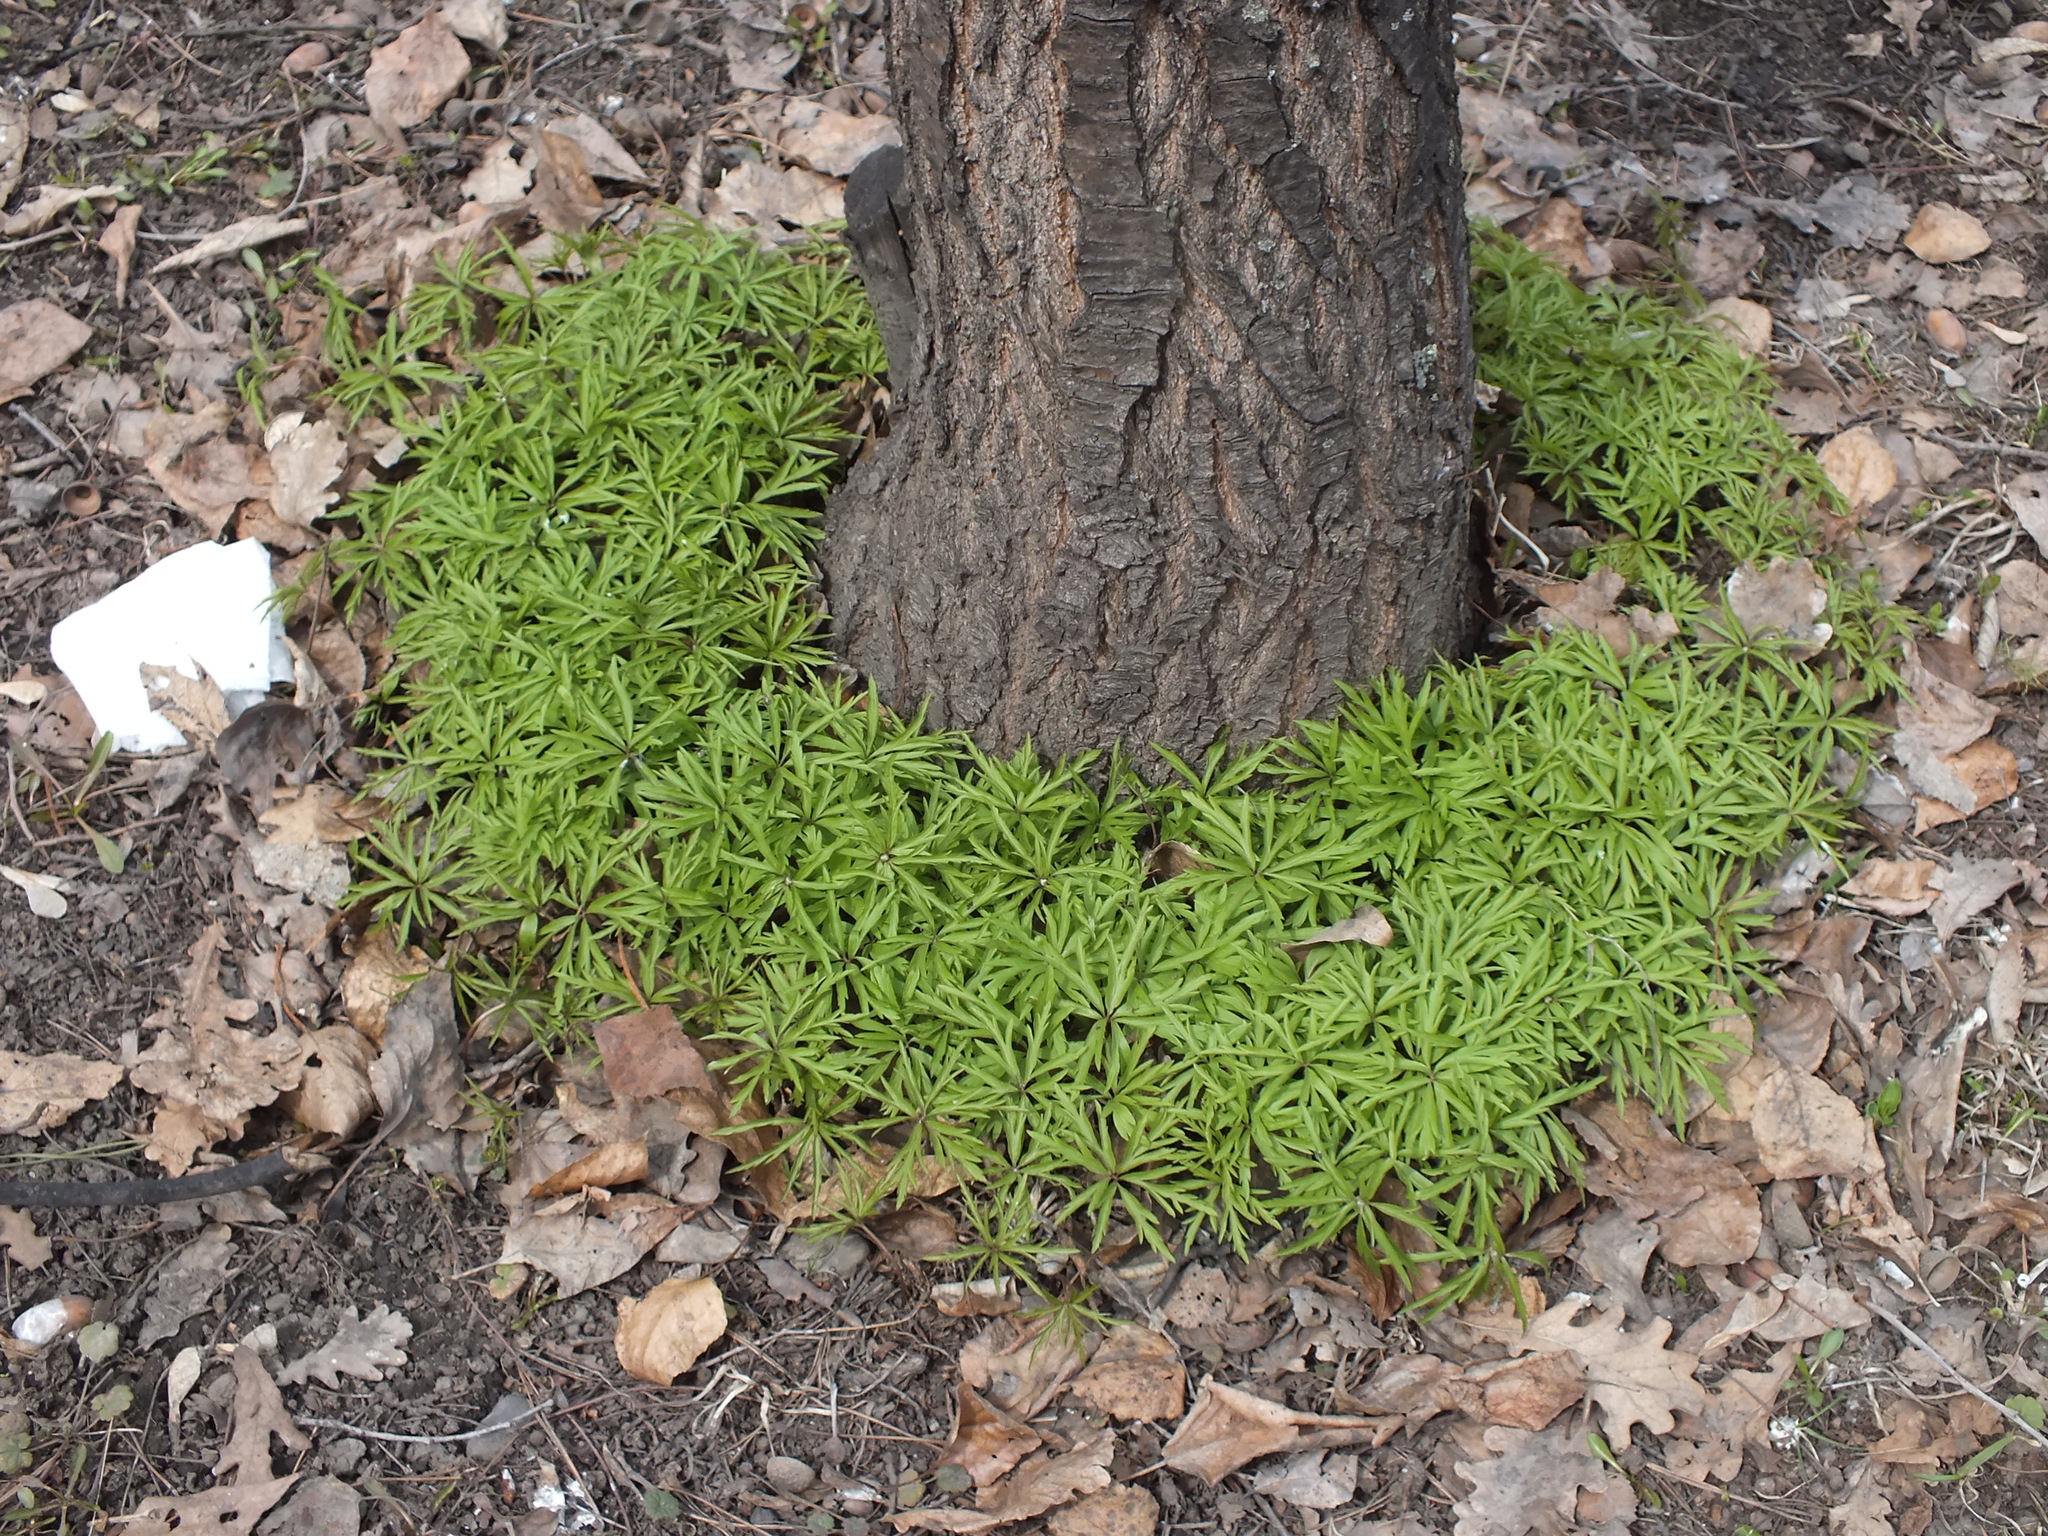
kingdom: Plantae
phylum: Tracheophyta
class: Magnoliopsida
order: Ranunculales
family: Ranunculaceae
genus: Anemone
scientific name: Anemone caerulea
